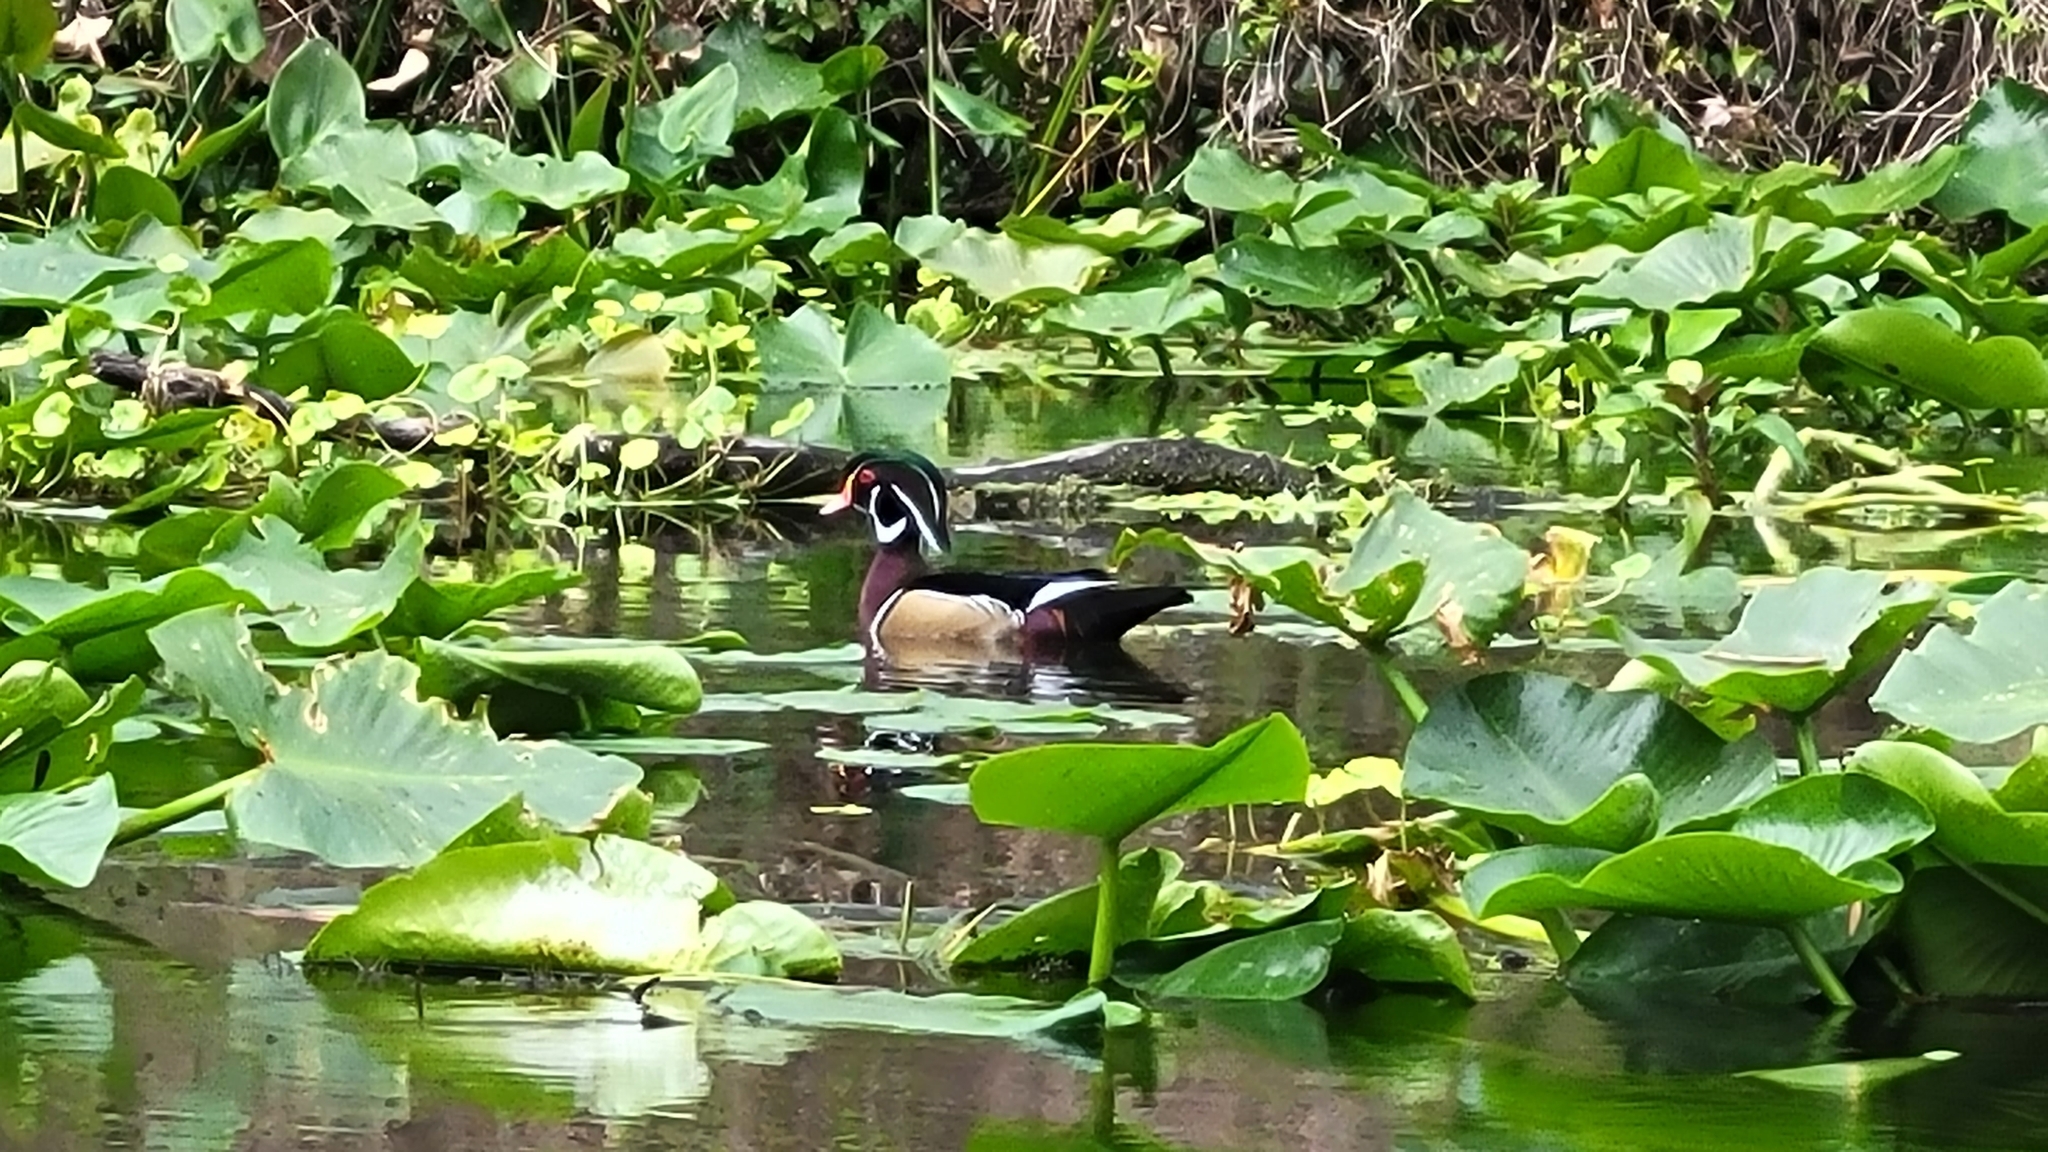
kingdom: Animalia
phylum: Chordata
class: Aves
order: Anseriformes
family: Anatidae
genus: Aix
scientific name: Aix sponsa
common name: Wood duck
